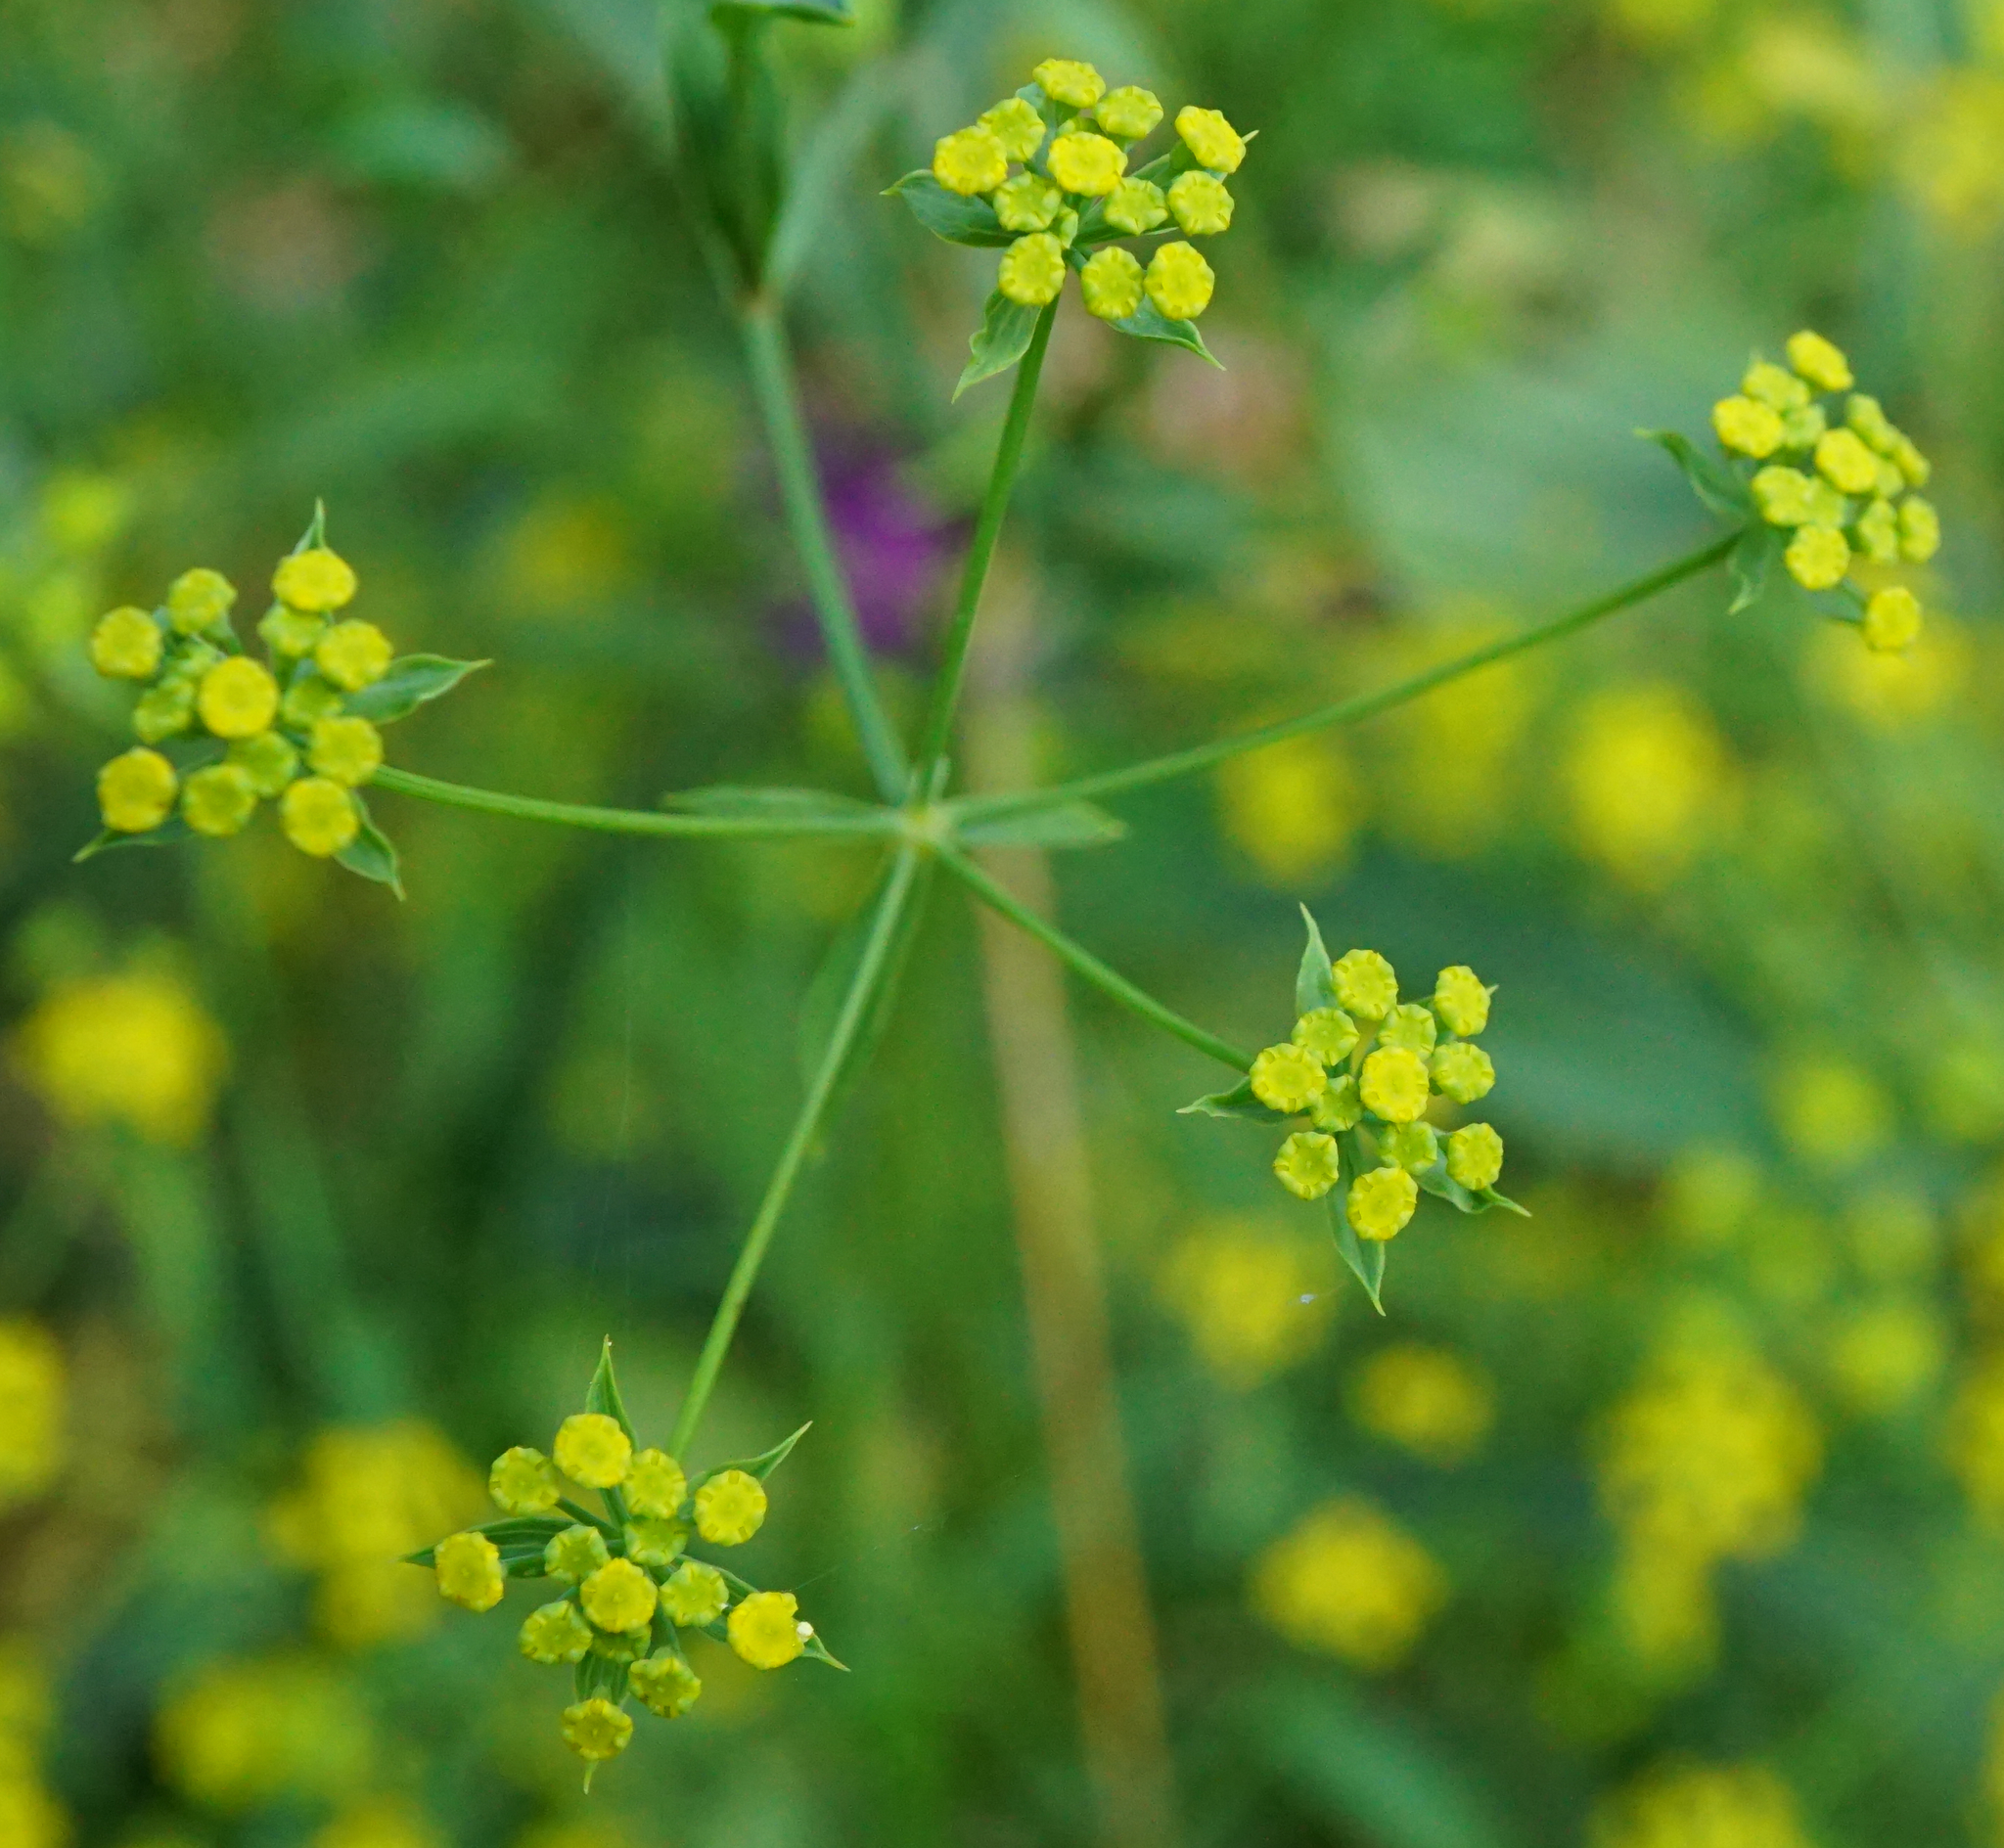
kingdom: Plantae
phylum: Tracheophyta
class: Magnoliopsida
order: Apiales
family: Apiaceae
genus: Bupleurum
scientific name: Bupleurum falcatum
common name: Sickle-leaved hare's-ear
